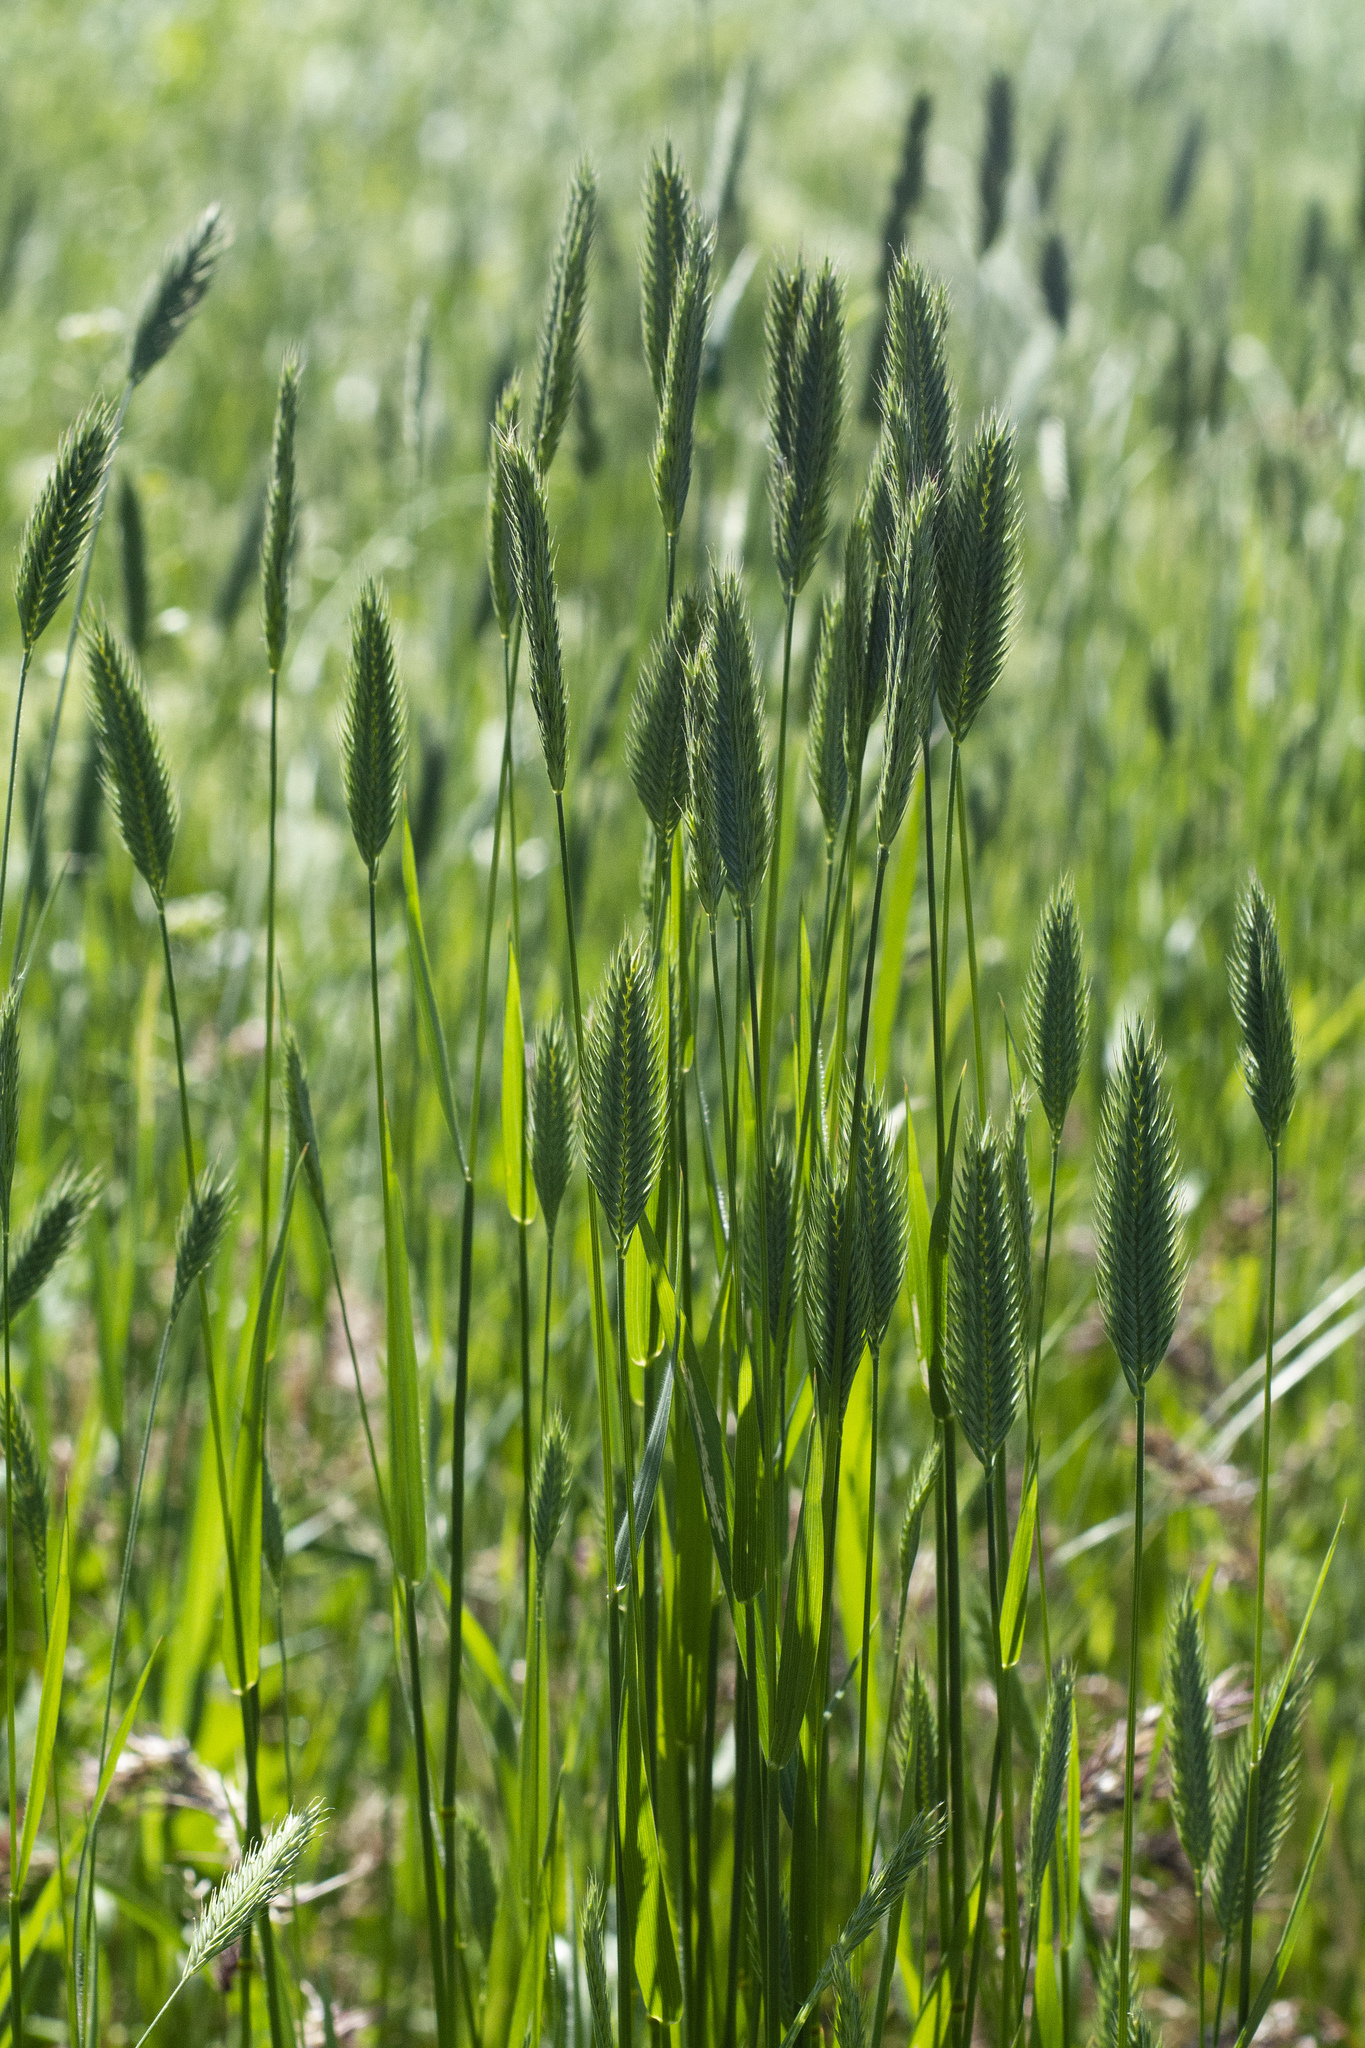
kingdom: Plantae
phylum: Tracheophyta
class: Liliopsida
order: Poales
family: Poaceae
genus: Agropyron
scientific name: Agropyron cristatum
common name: Crested wheatgrass
